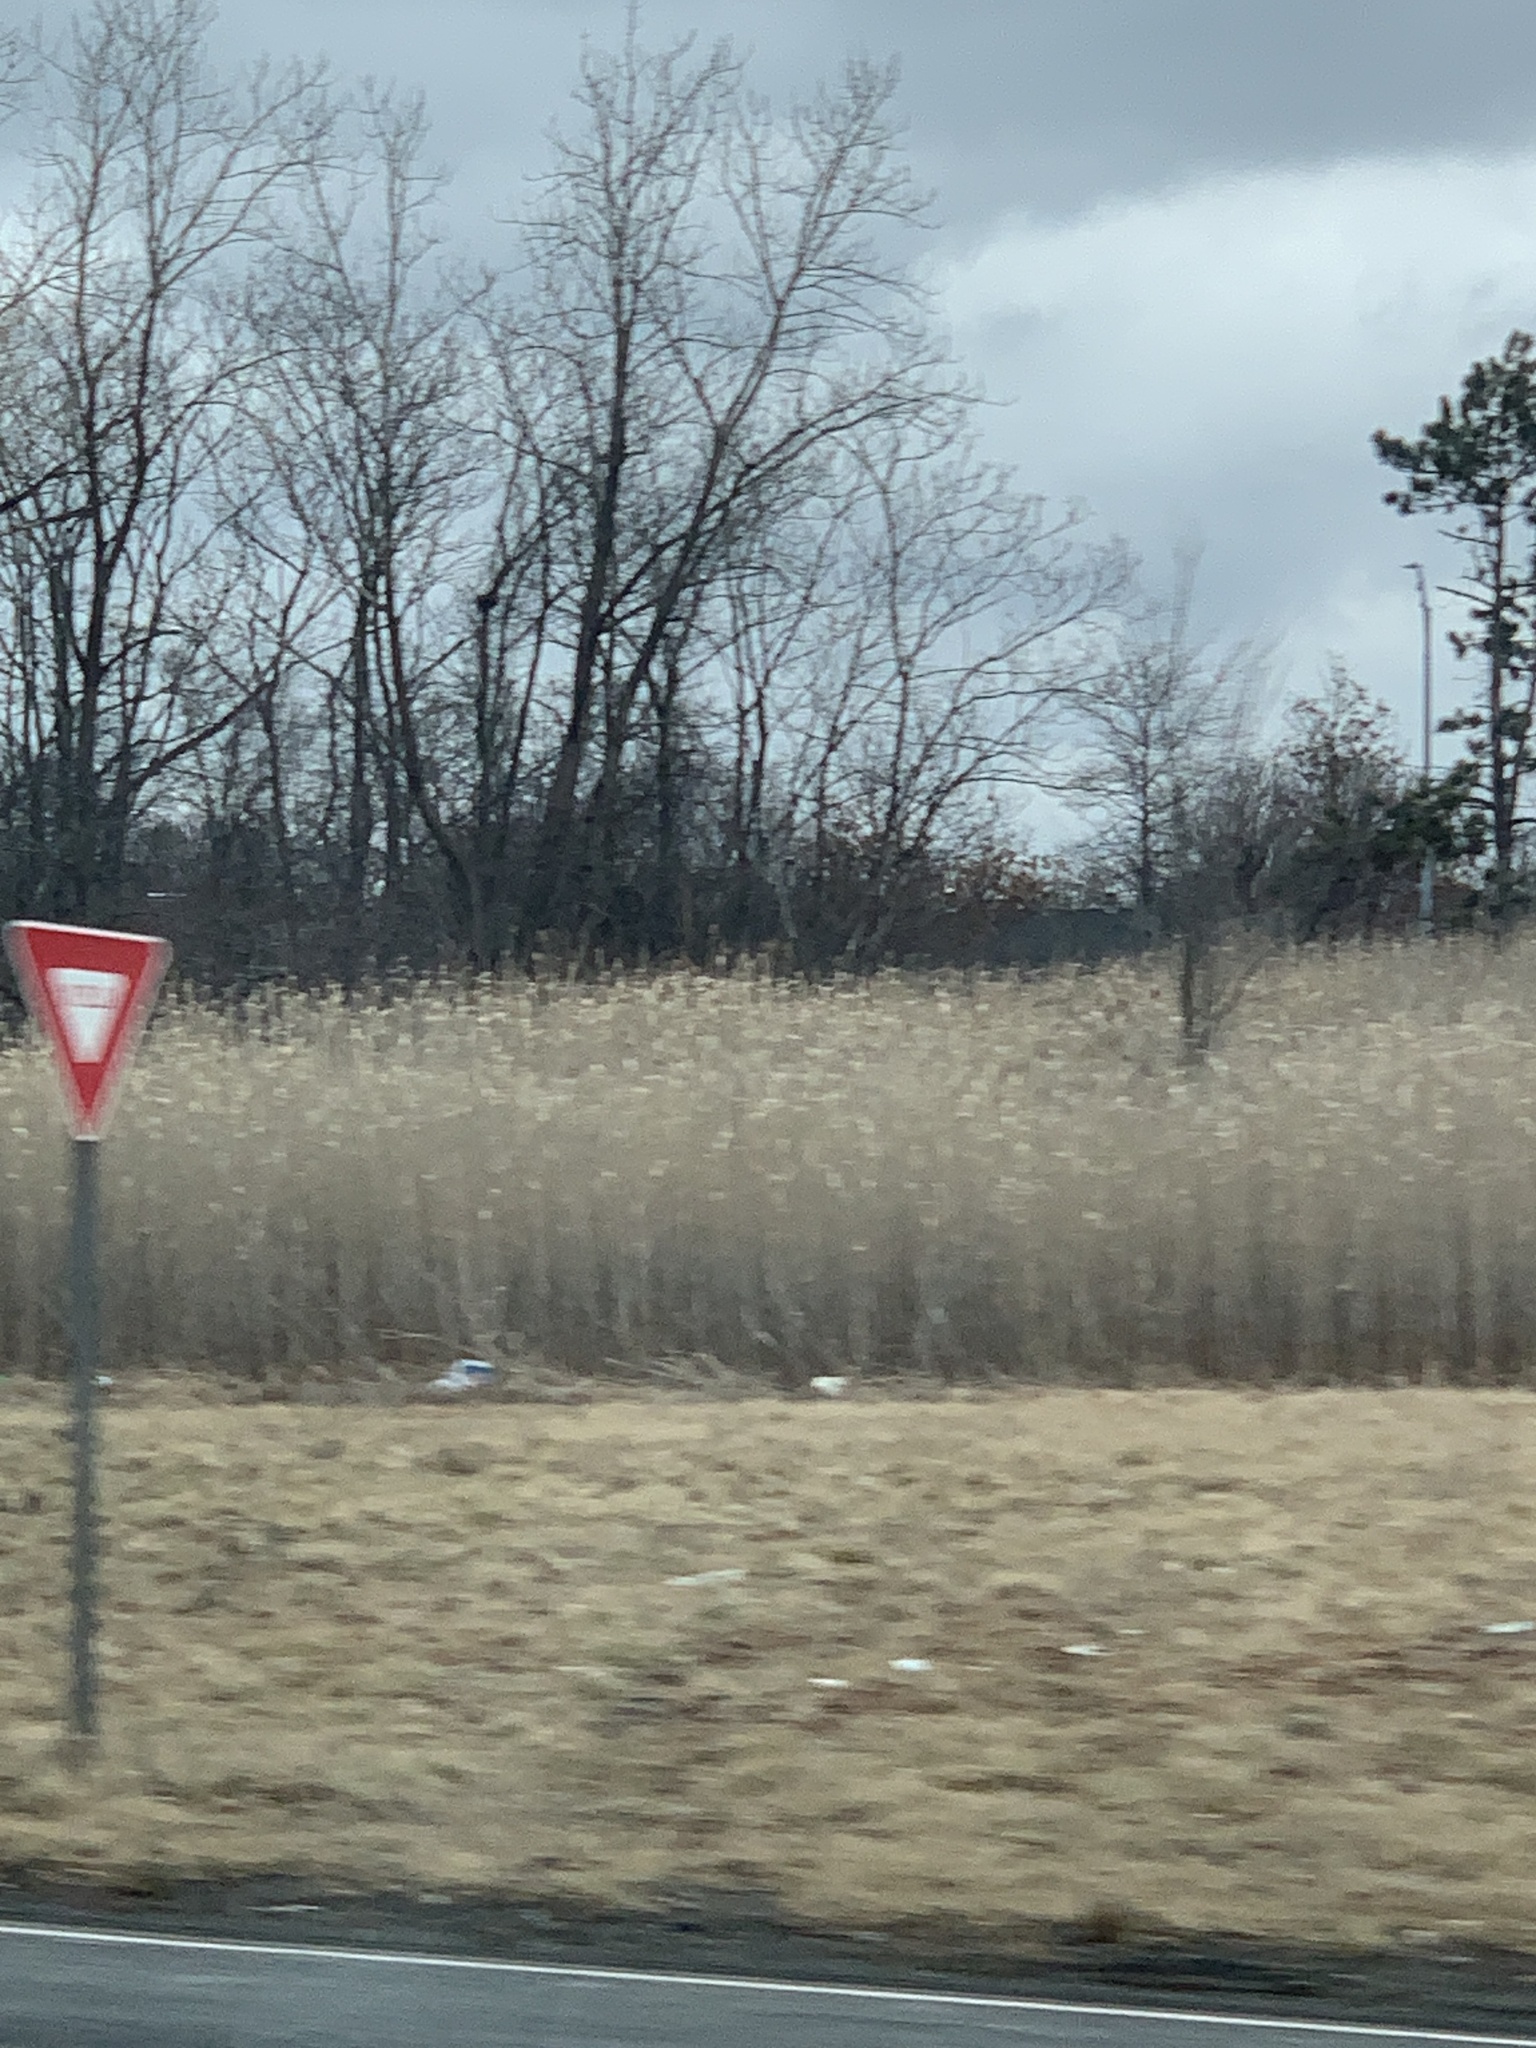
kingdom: Plantae
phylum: Tracheophyta
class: Liliopsida
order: Poales
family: Poaceae
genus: Phragmites
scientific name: Phragmites australis
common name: Common reed
